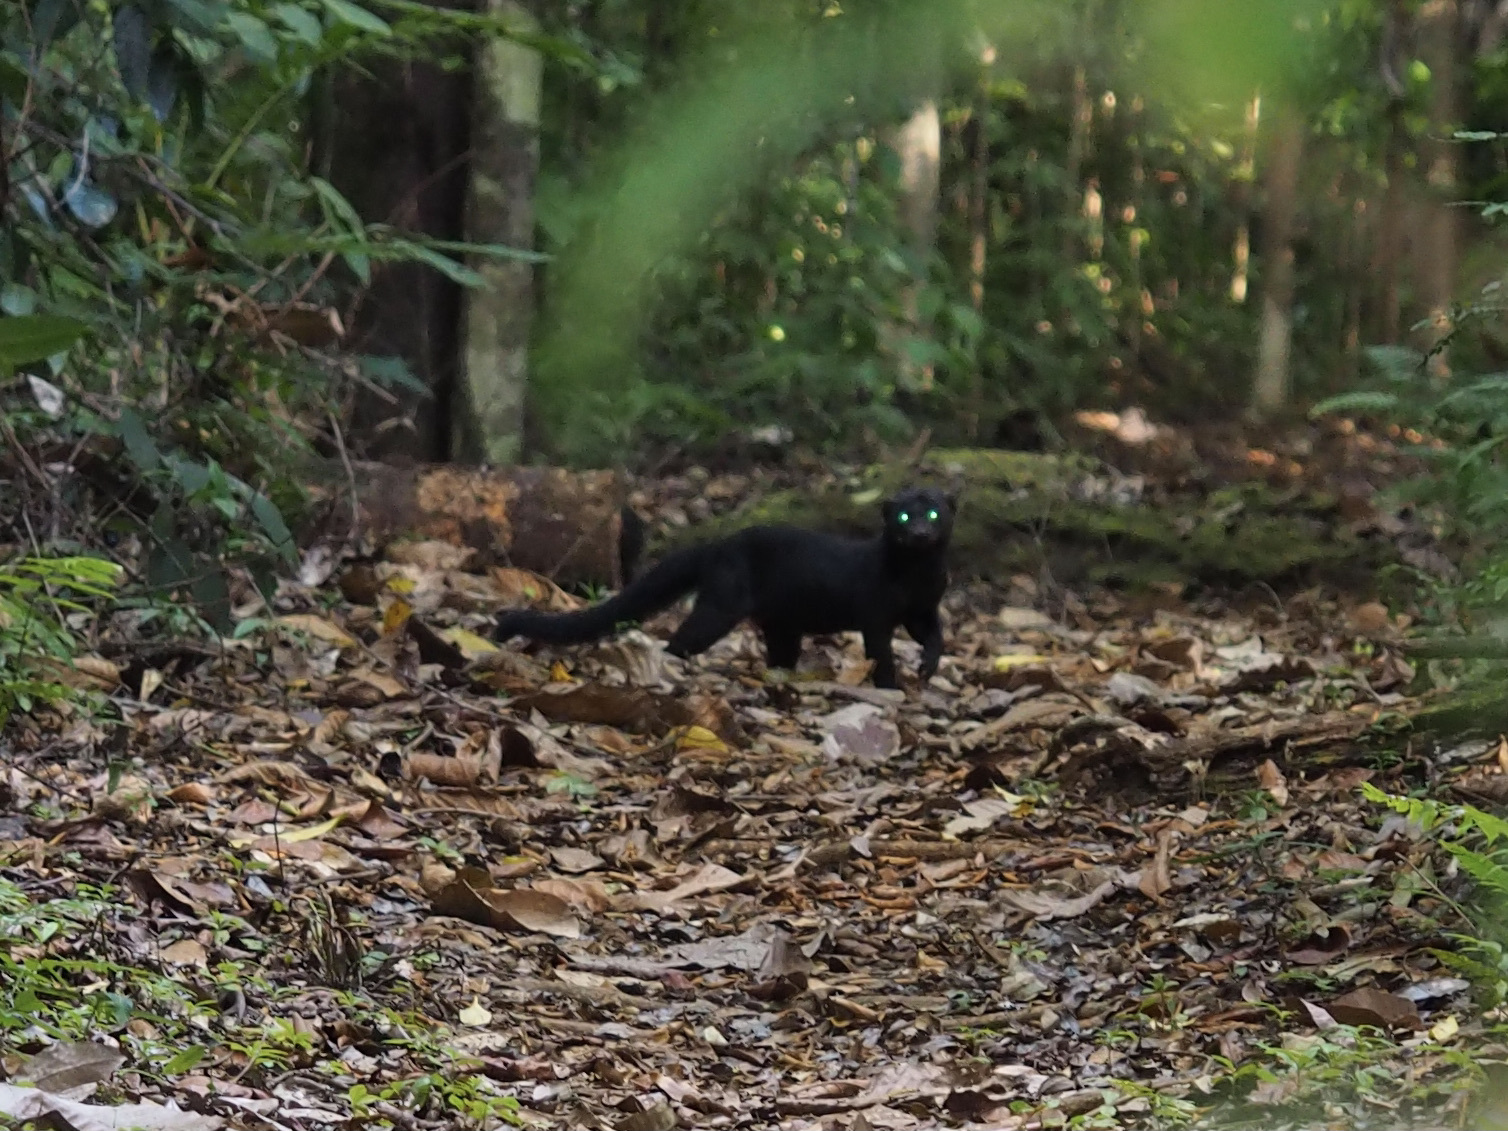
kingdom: Animalia
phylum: Chordata
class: Mammalia
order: Carnivora
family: Mustelidae
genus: Eira
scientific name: Eira barbara
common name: Tayra
